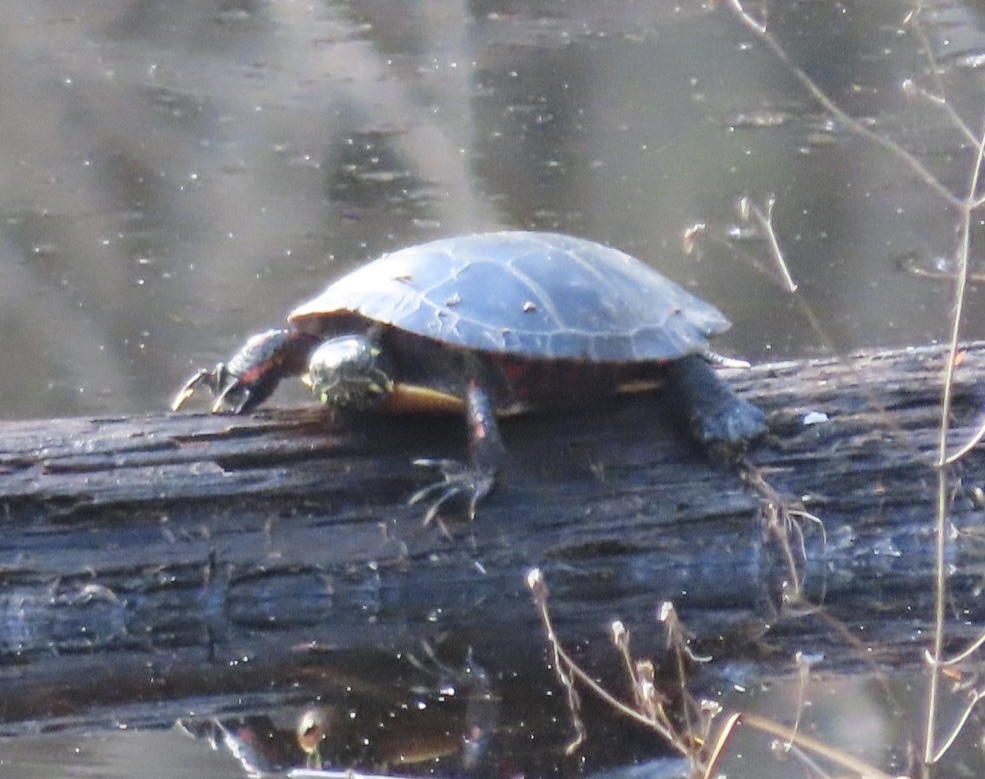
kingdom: Animalia
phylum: Chordata
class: Testudines
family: Emydidae
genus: Chrysemys
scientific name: Chrysemys picta
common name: Painted turtle
